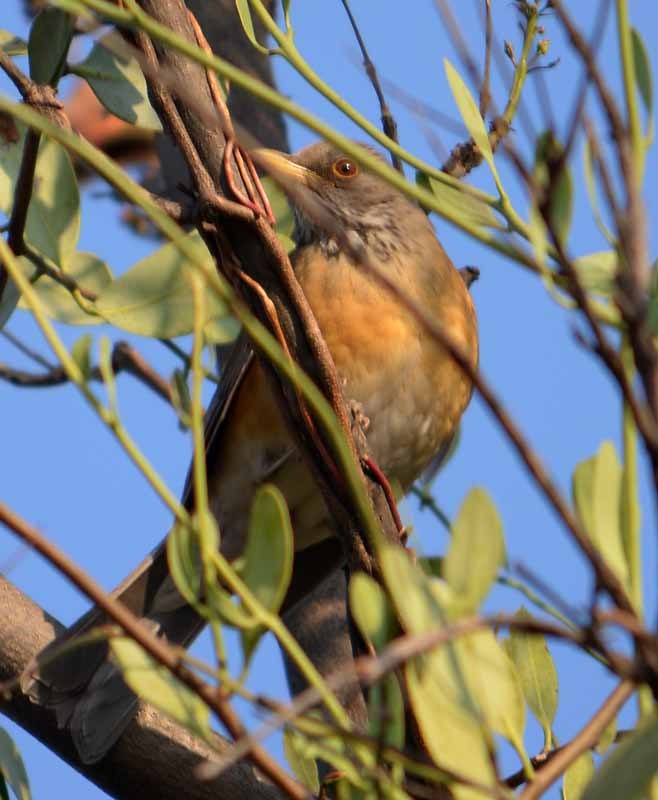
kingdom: Animalia
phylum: Chordata
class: Aves
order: Passeriformes
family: Turdidae
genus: Turdus
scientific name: Turdus rufopalliatus
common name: Rufous-backed robin
